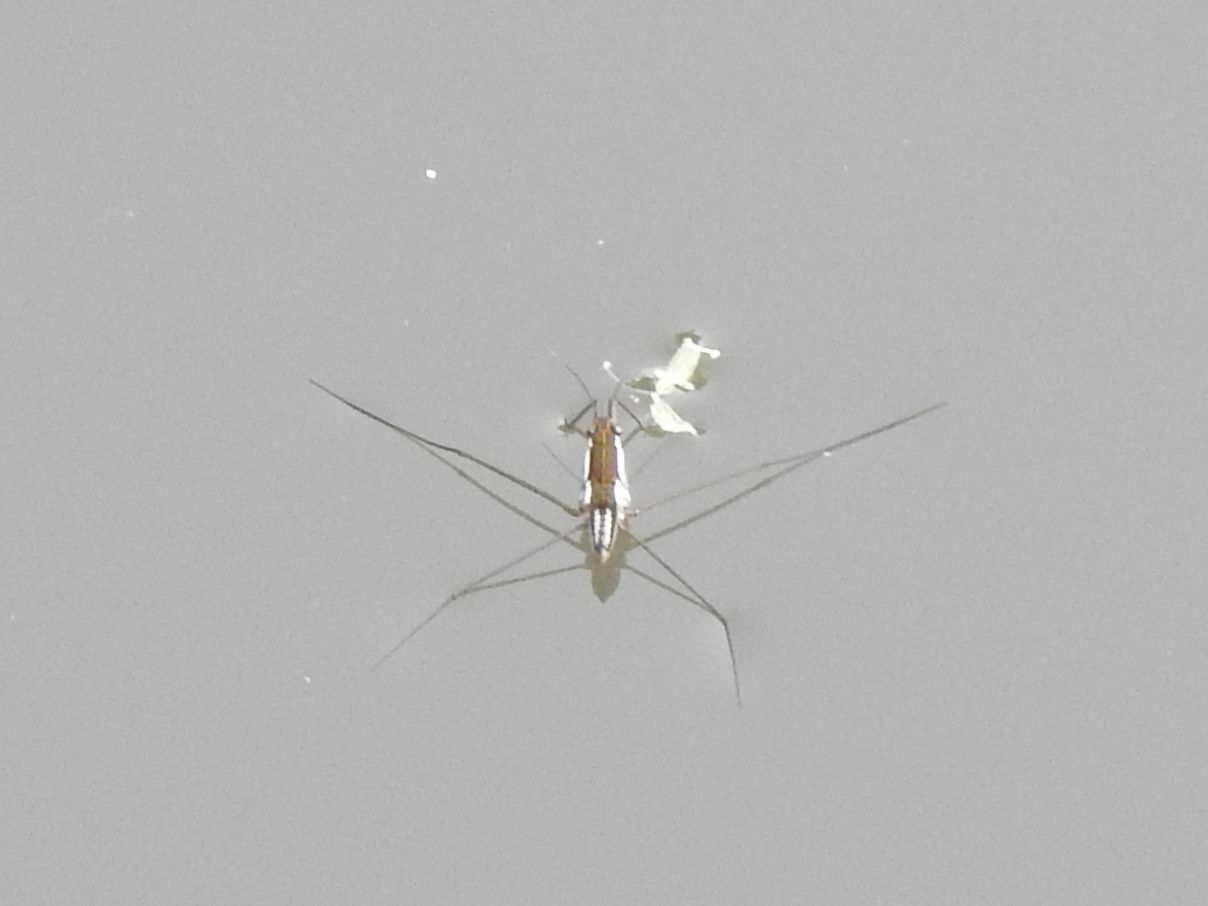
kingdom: Animalia
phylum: Arthropoda
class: Insecta
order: Hemiptera
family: Gerridae
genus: Limnogonoides
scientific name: Limnogonoides
